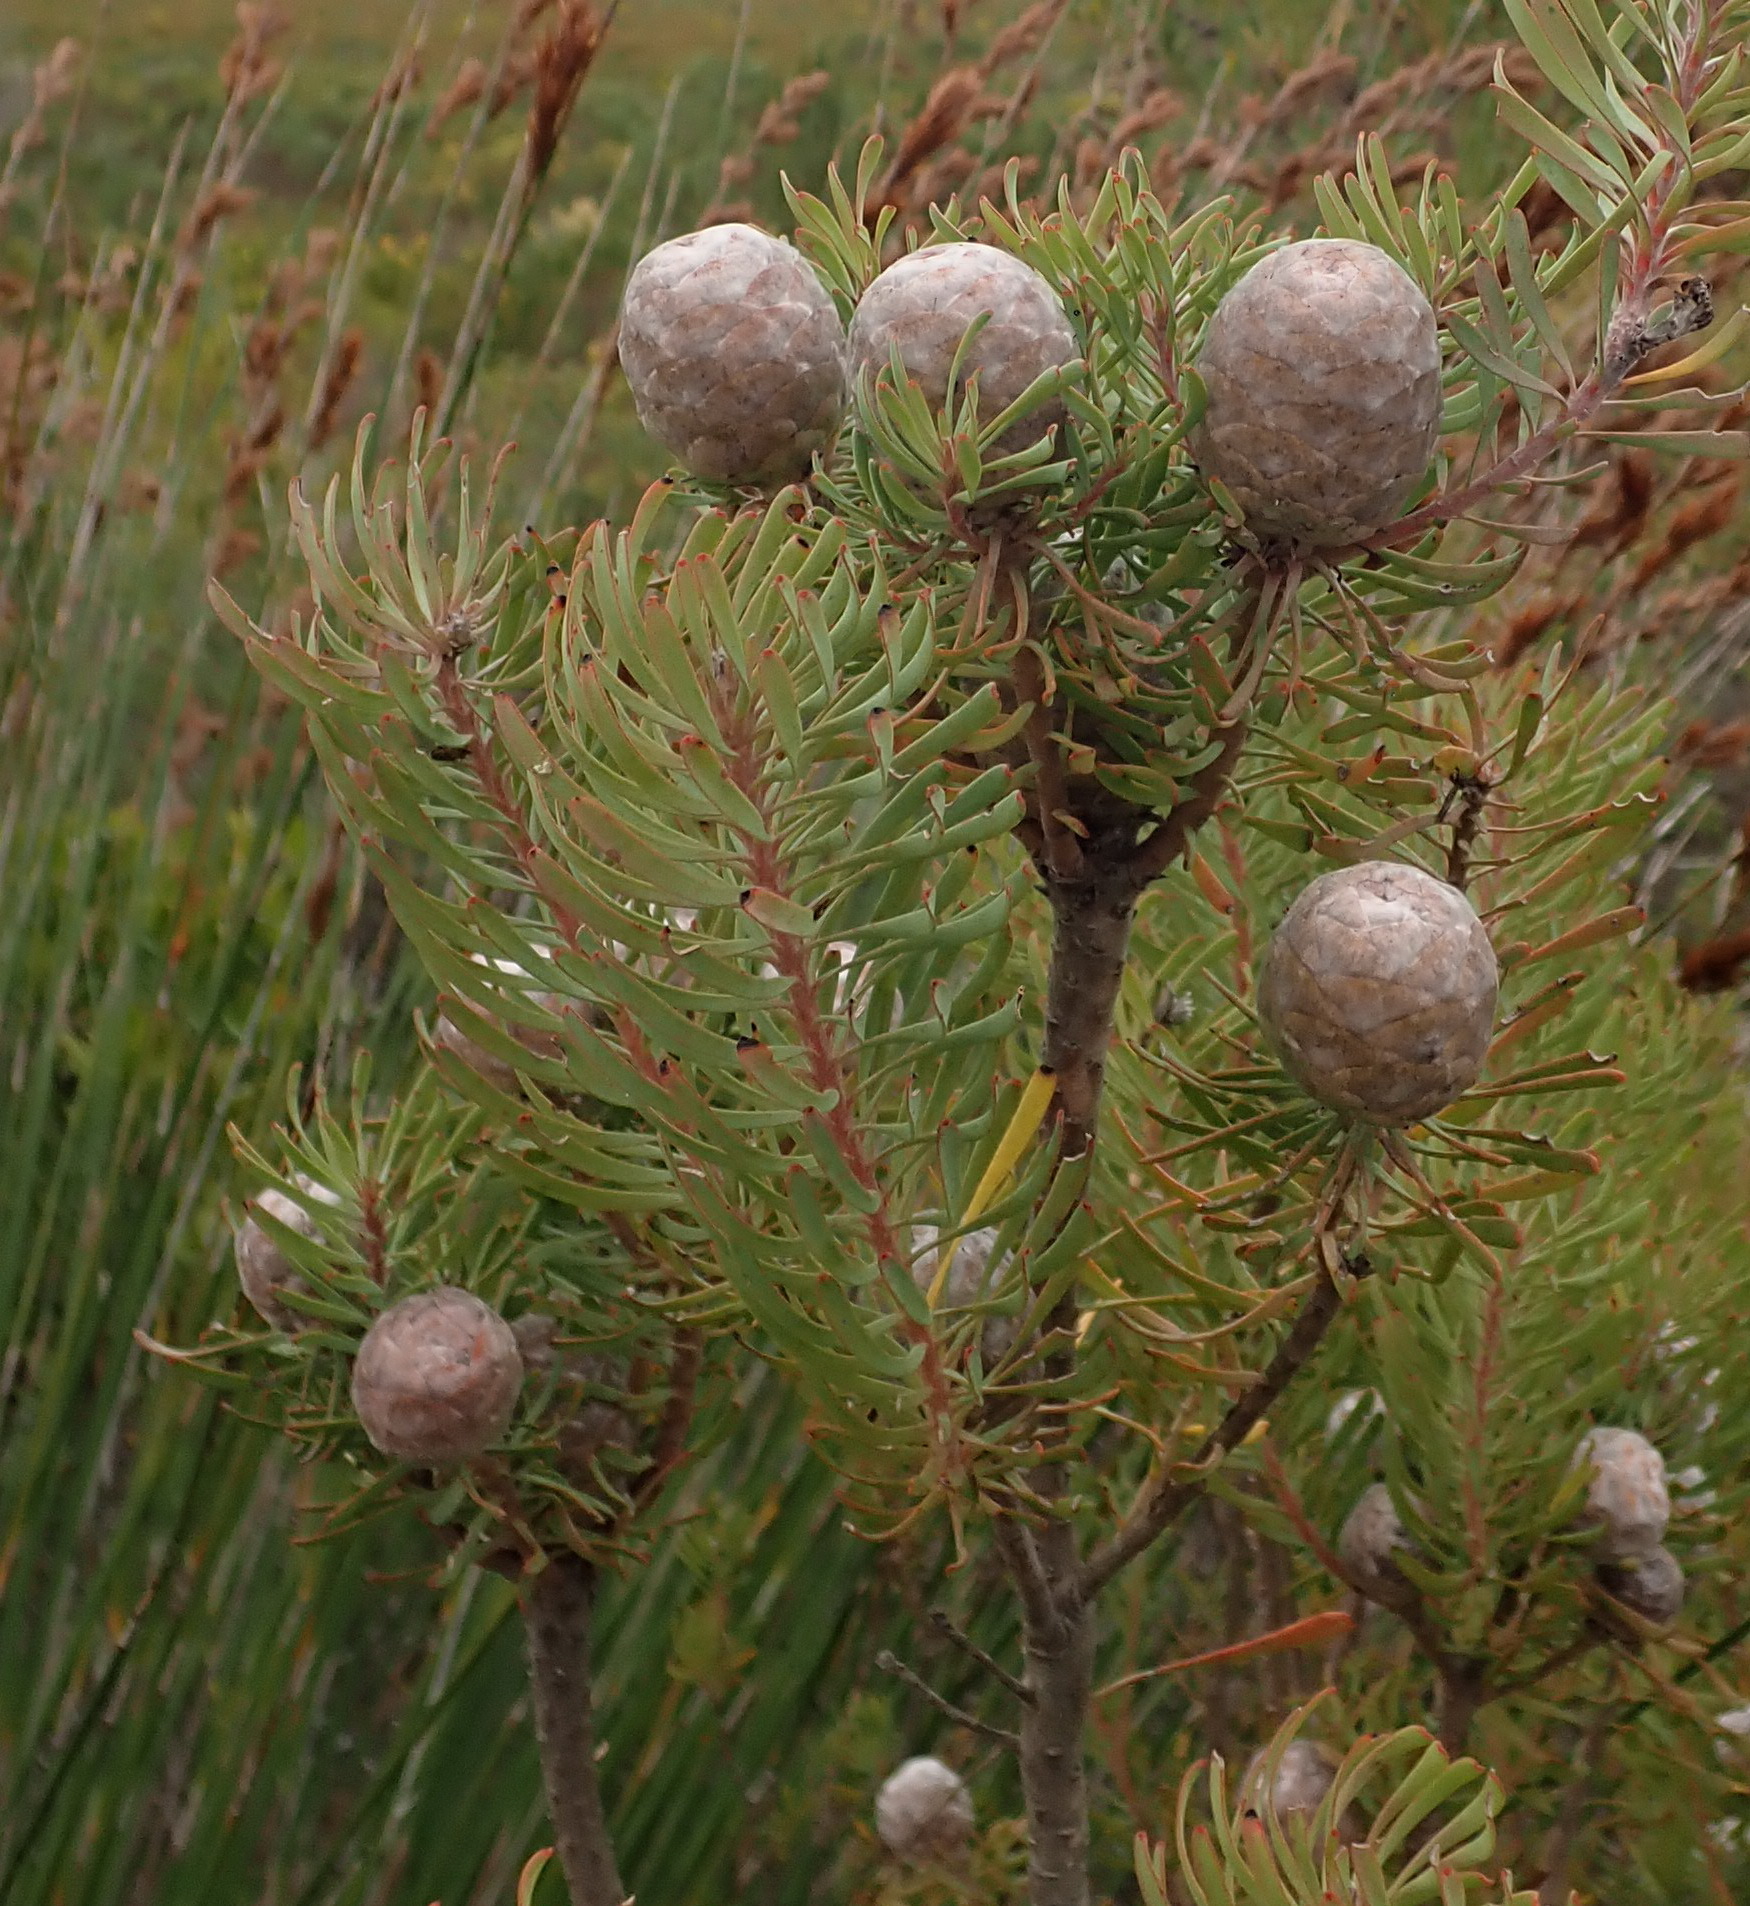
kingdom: Plantae
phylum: Tracheophyta
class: Magnoliopsida
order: Proteales
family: Proteaceae
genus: Leucadendron
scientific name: Leucadendron galpinii
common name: Hairless conebush
